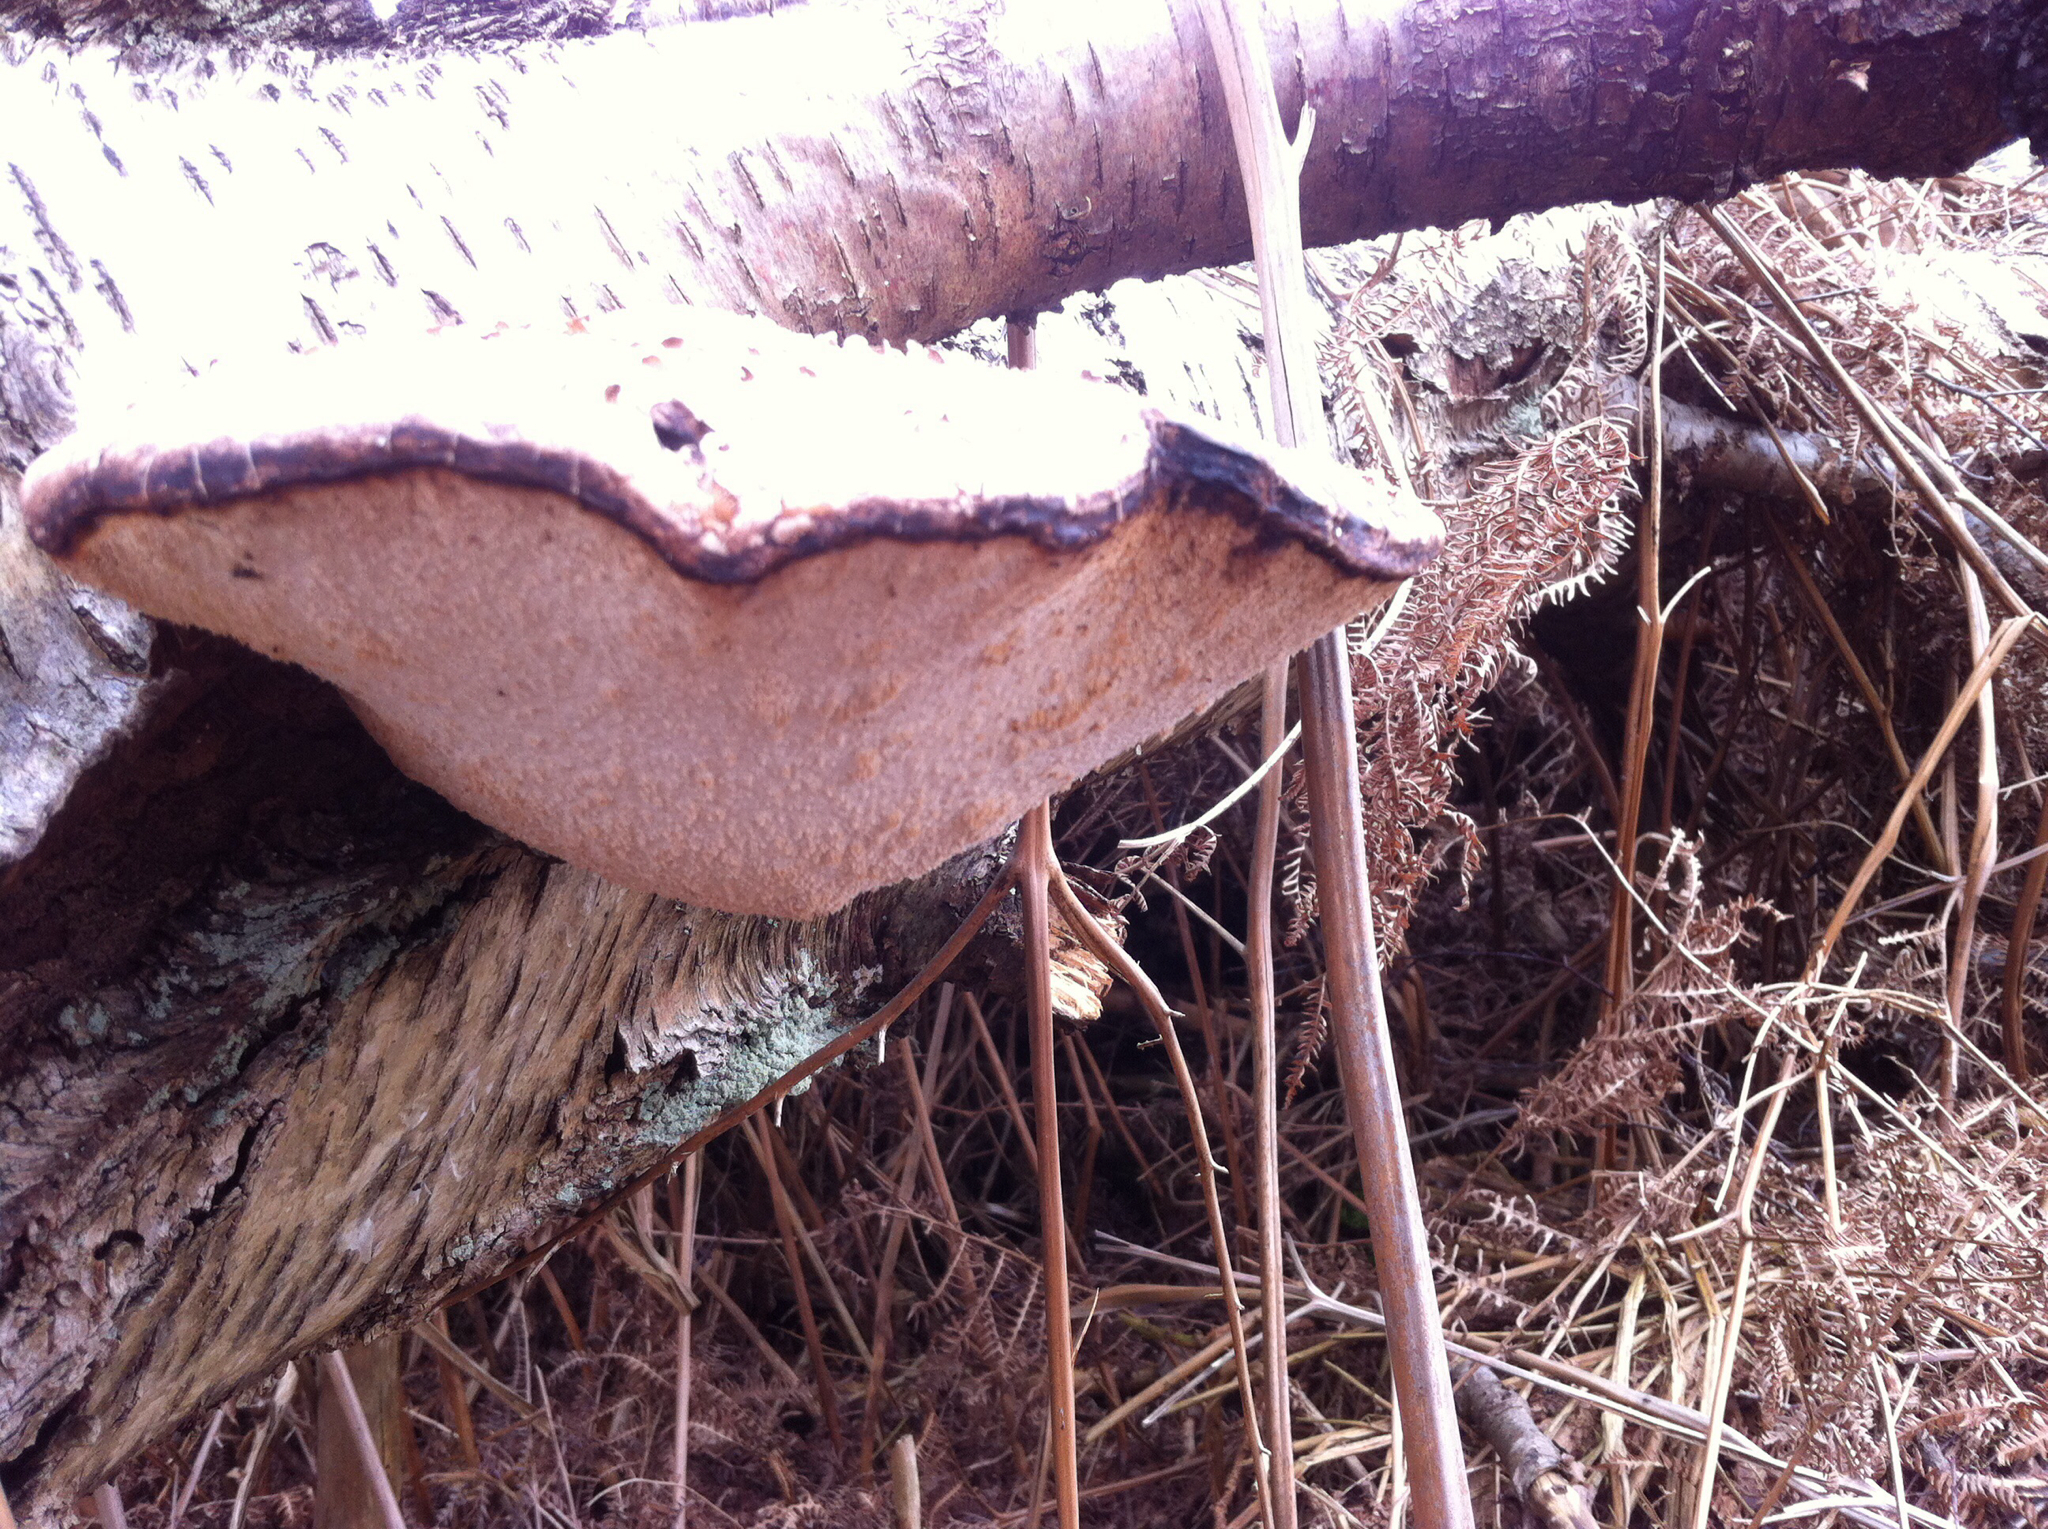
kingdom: Fungi
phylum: Basidiomycota
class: Agaricomycetes
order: Polyporales
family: Fomitopsidaceae
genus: Fomitopsis
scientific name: Fomitopsis betulina
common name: Birch polypore
